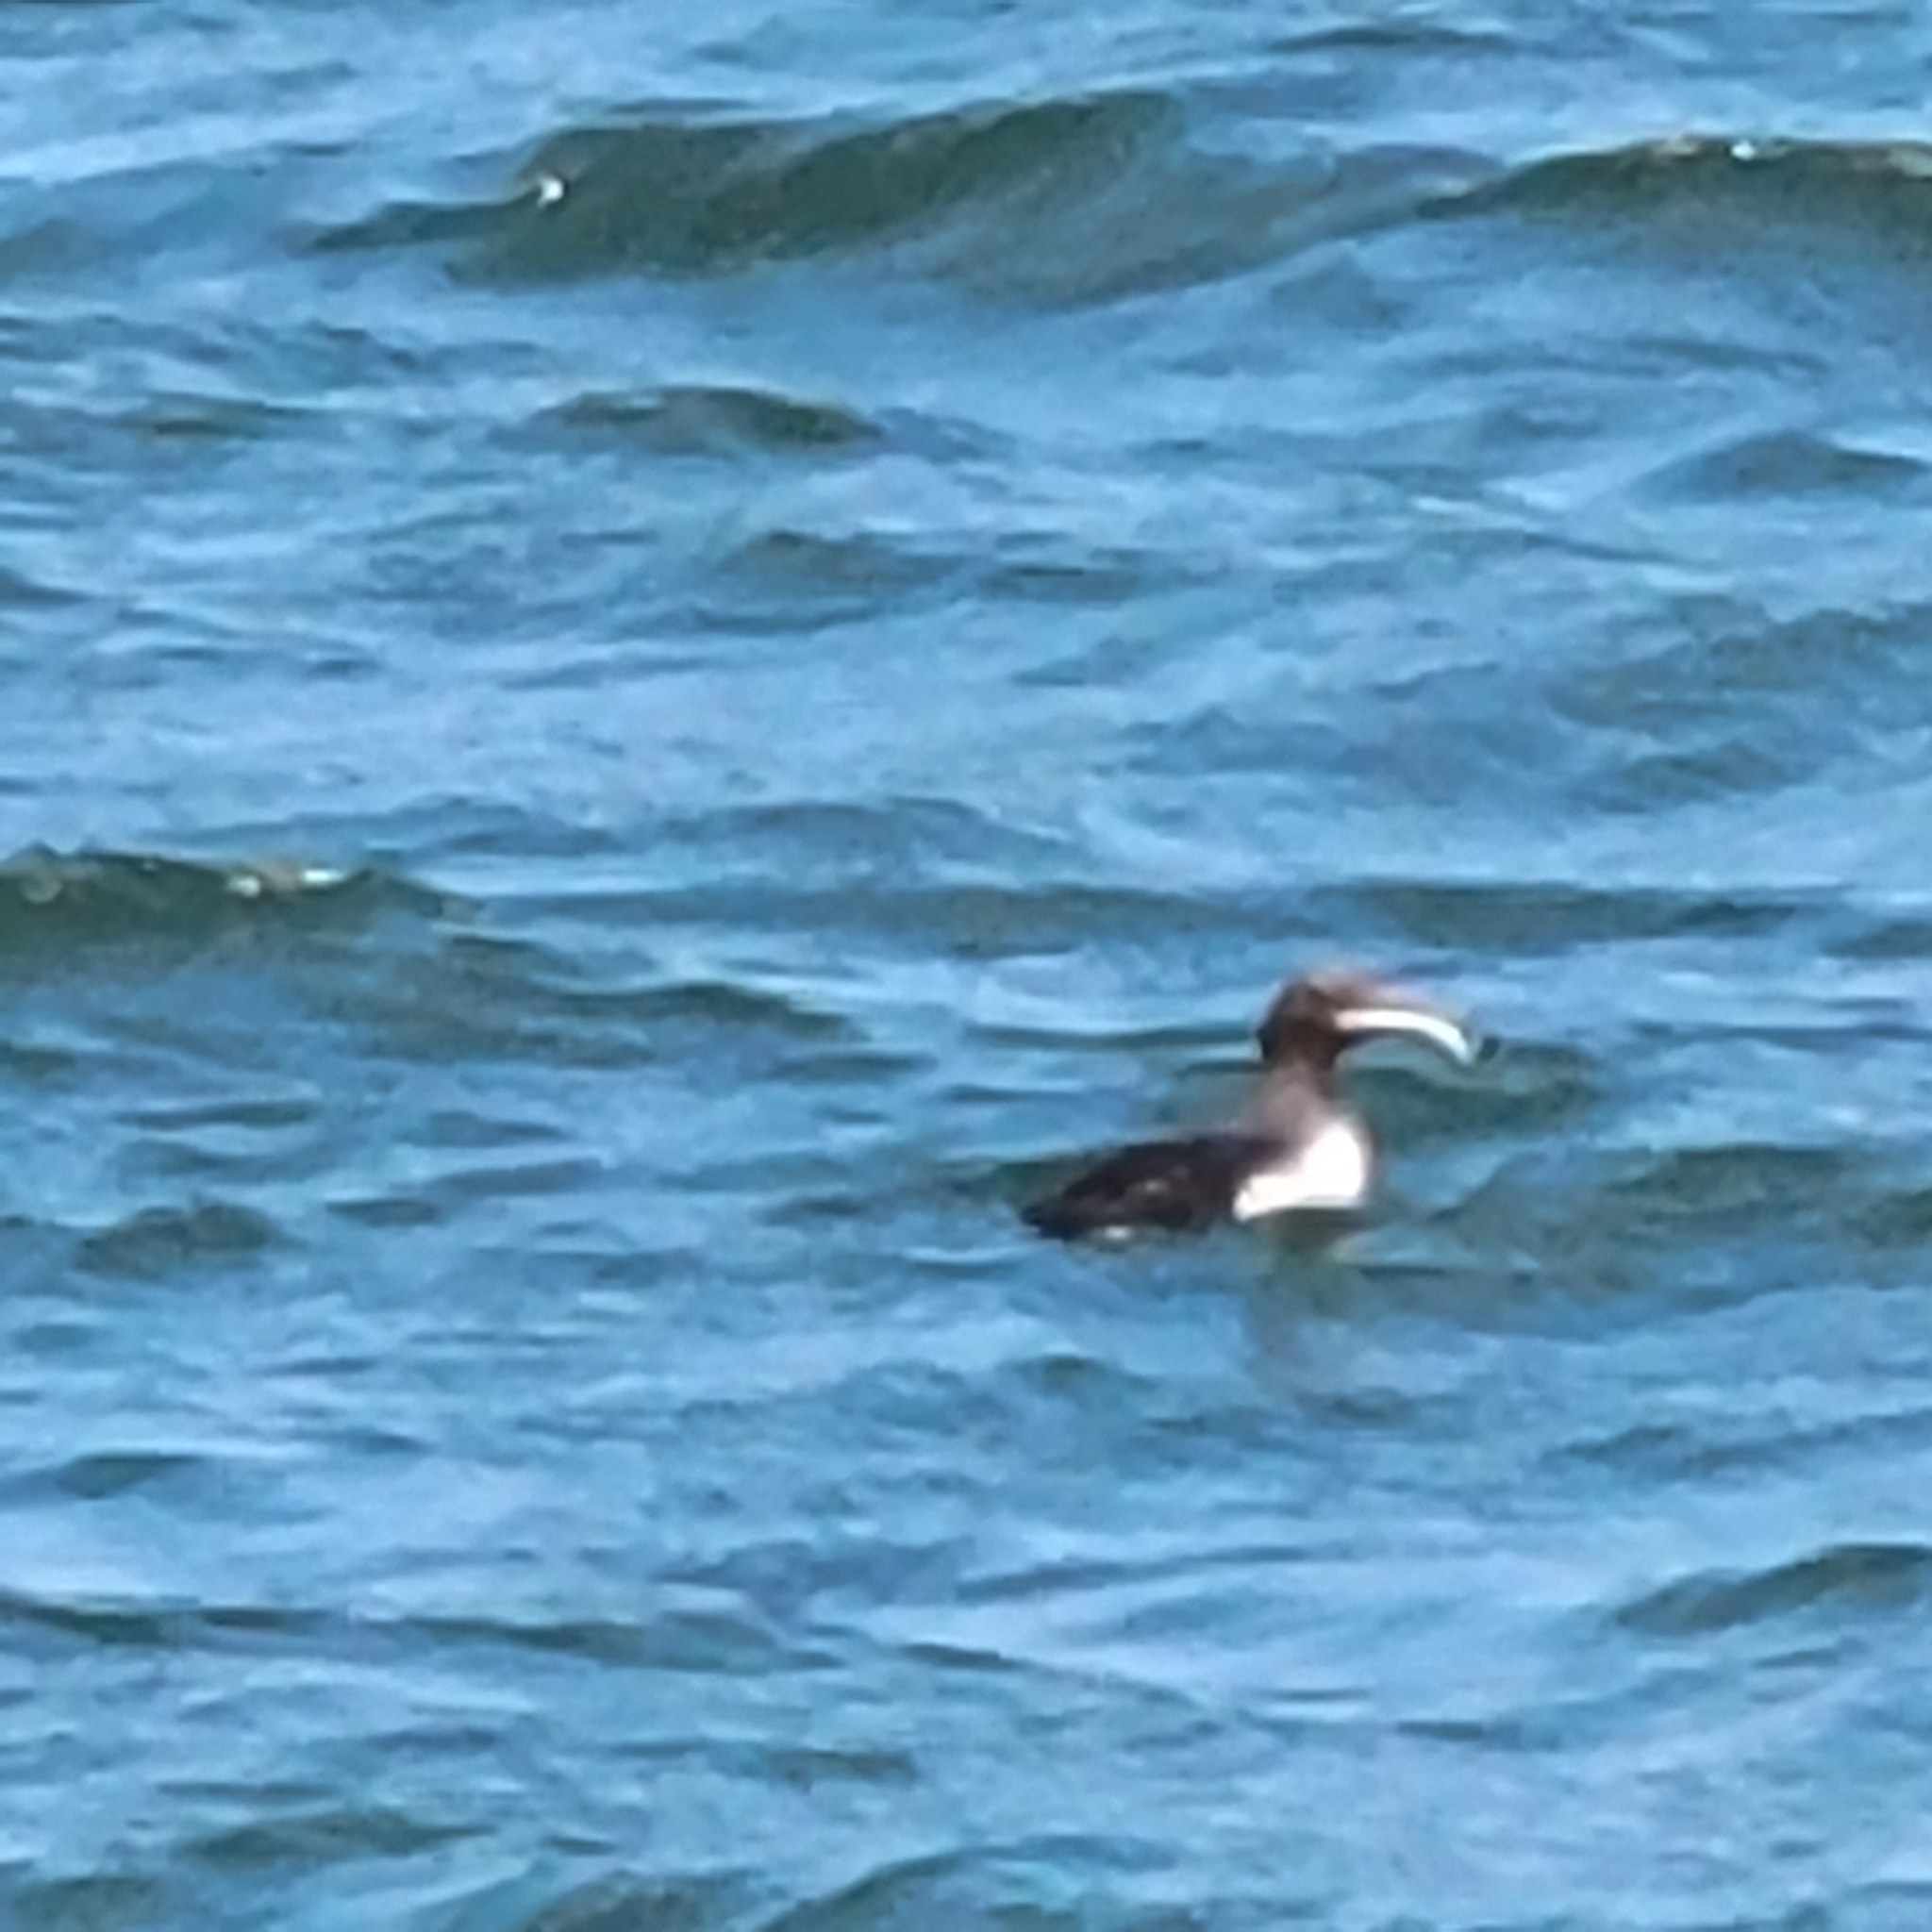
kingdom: Animalia
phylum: Chordata
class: Aves
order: Charadriiformes
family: Alcidae
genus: Uria
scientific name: Uria aalge
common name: Common murre
